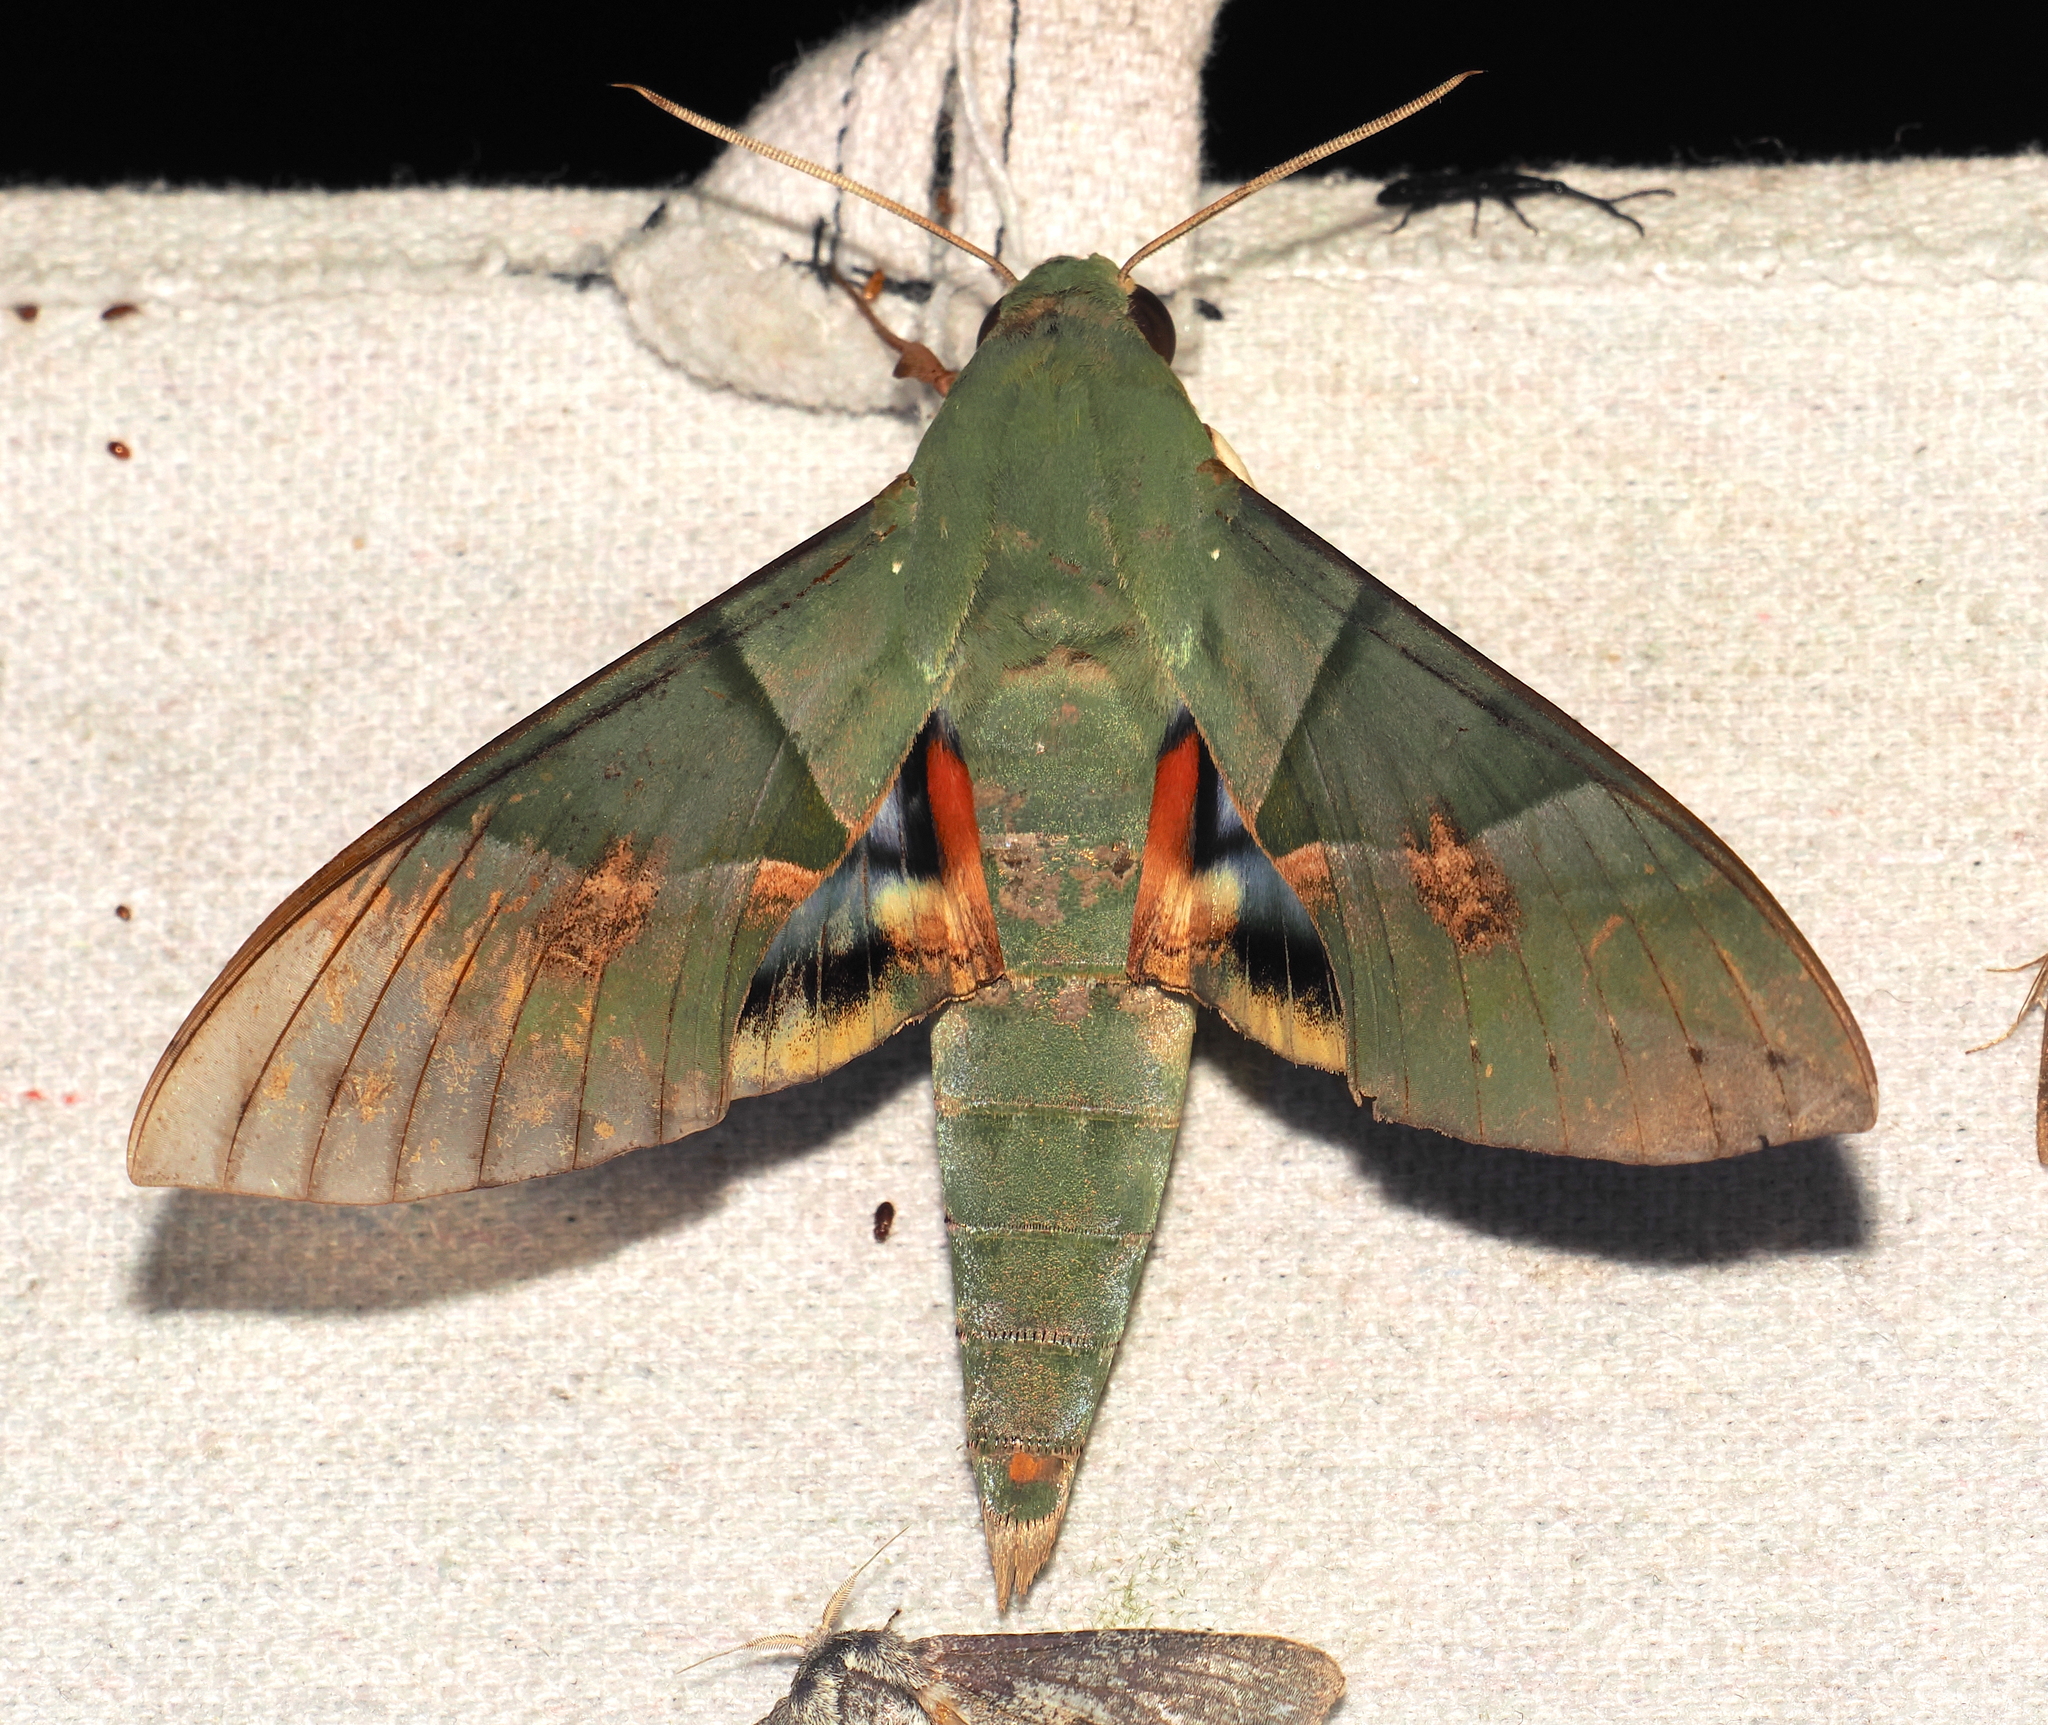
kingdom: Animalia
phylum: Arthropoda
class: Insecta
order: Lepidoptera
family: Sphingidae
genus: Eumorpha
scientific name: Eumorpha labruscae
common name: Gaudy sphinx
